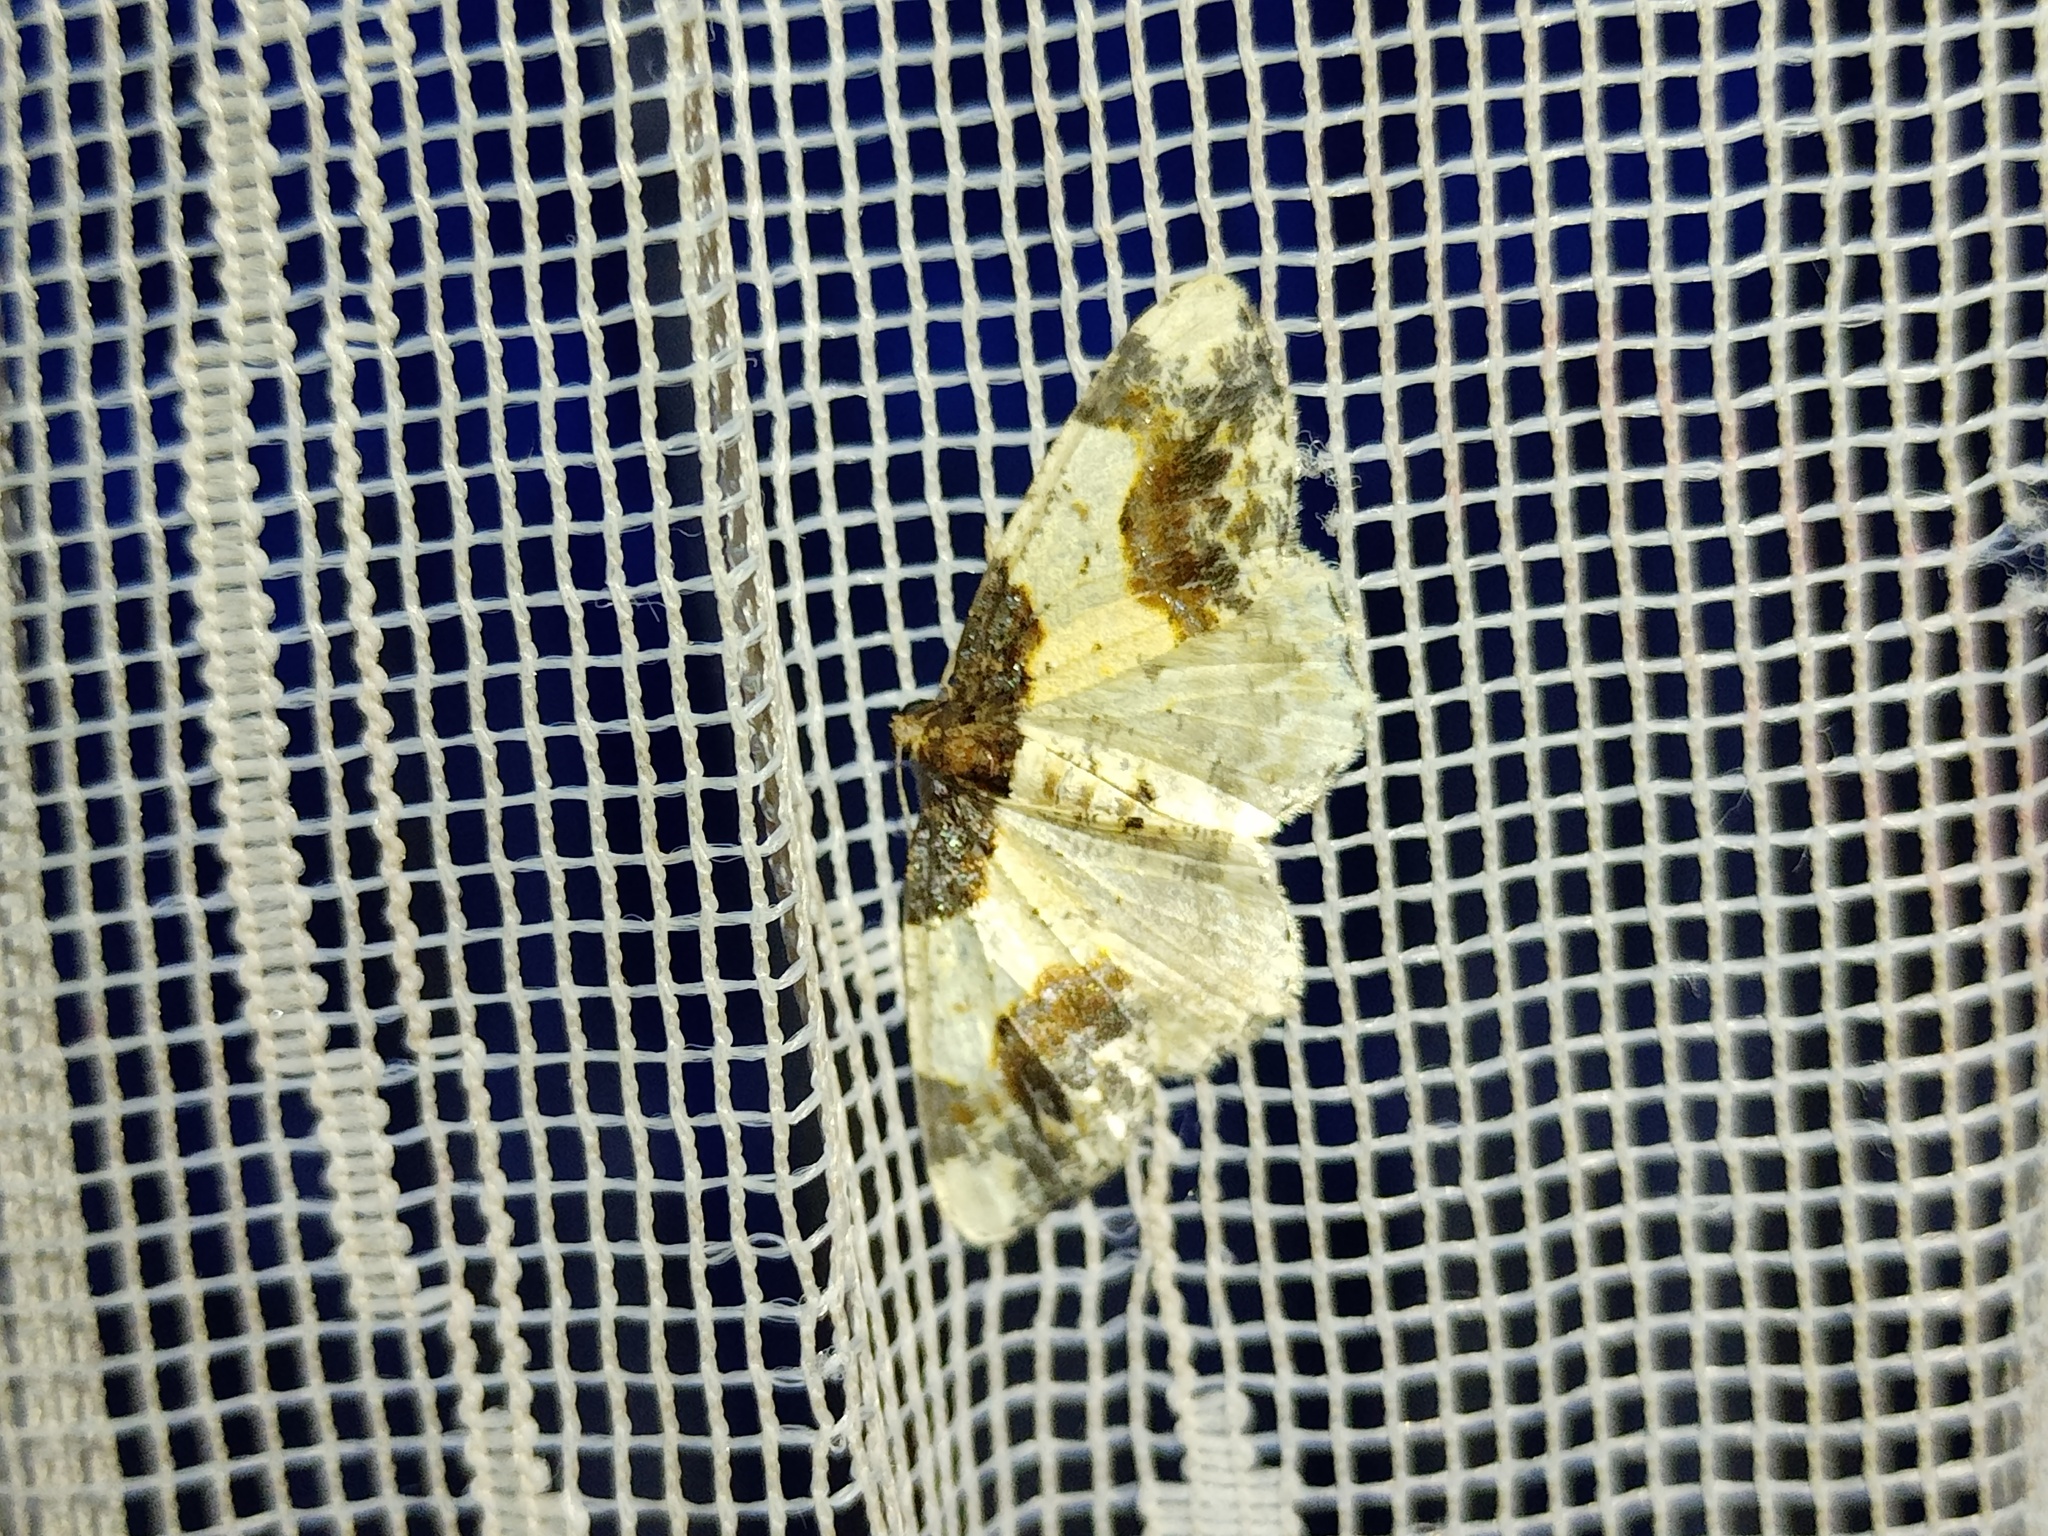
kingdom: Animalia
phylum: Arthropoda
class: Insecta
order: Lepidoptera
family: Geometridae
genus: Ligdia
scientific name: Ligdia adustata
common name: Scorched carpet
